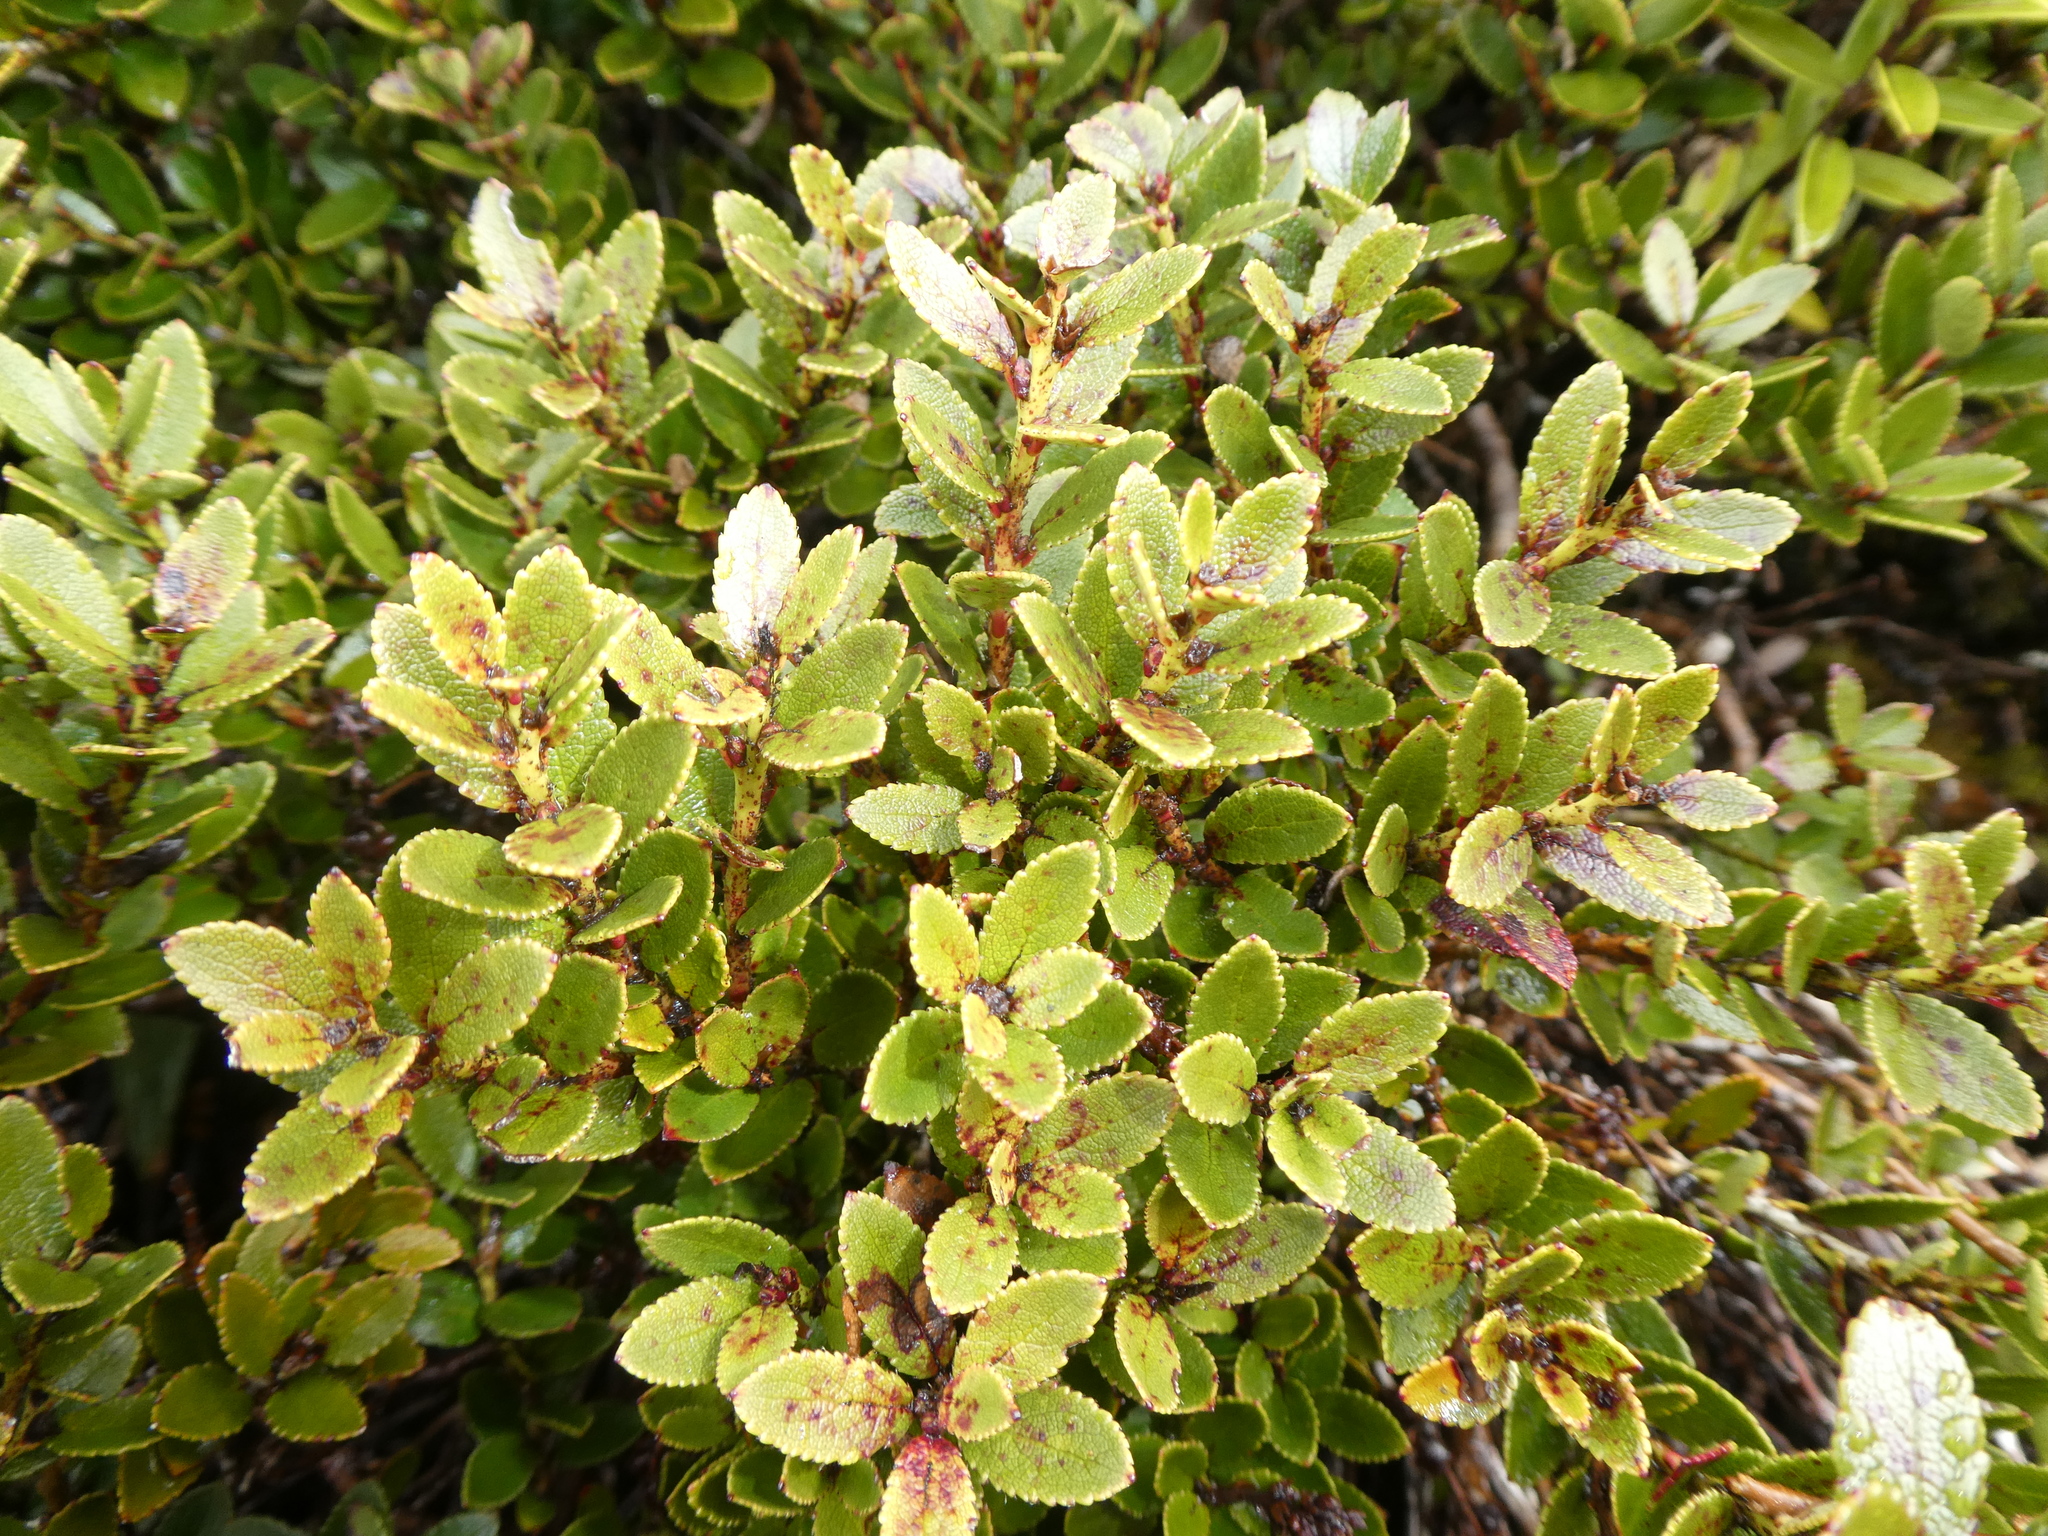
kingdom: Plantae
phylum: Tracheophyta
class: Magnoliopsida
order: Ericales
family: Ericaceae
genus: Gaultheria
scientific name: Gaultheria crassa
